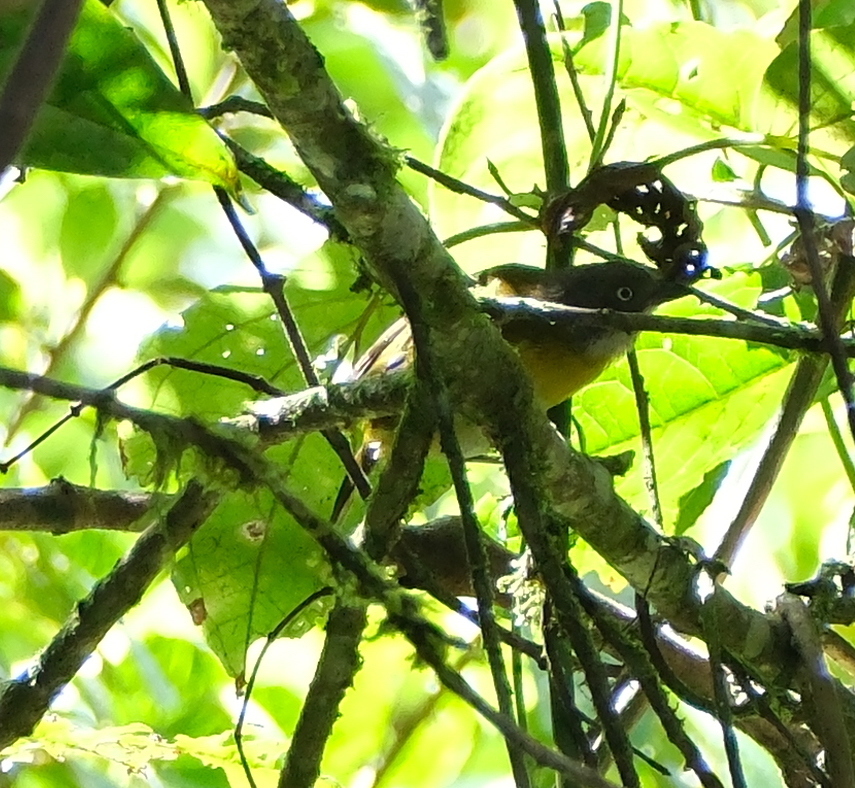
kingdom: Animalia
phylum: Chordata
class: Aves
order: Passeriformes
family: Passerellidae
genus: Chlorospingus
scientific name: Chlorospingus flavopectus
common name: Common chlorospingus
